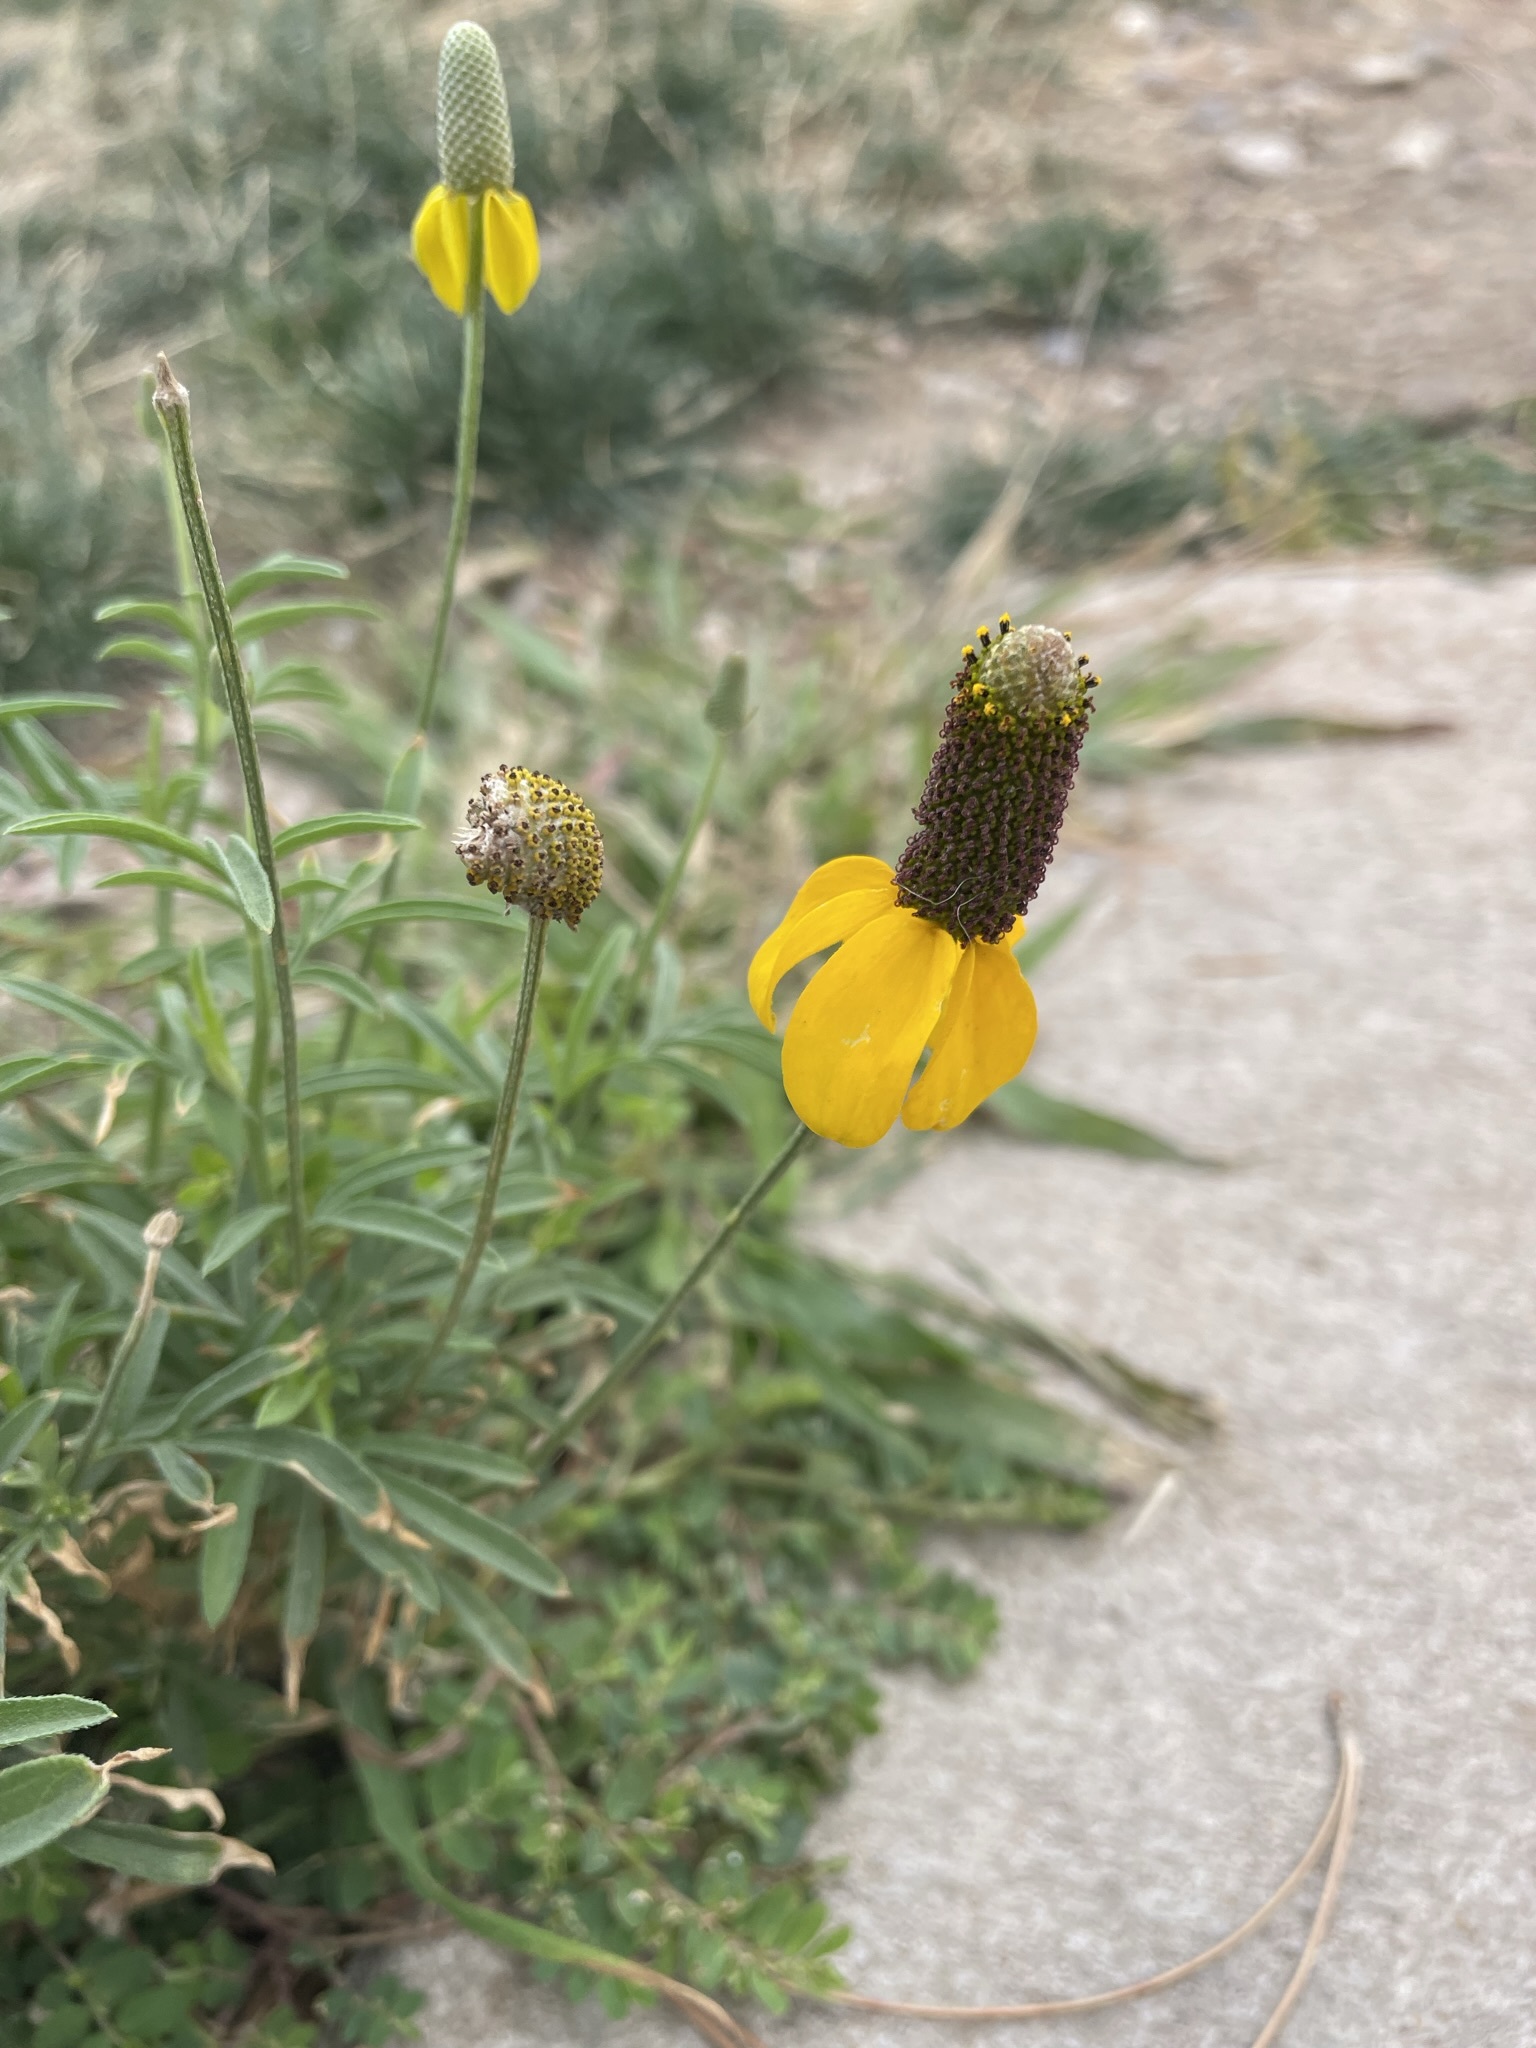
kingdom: Plantae
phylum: Tracheophyta
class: Magnoliopsida
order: Asterales
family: Asteraceae
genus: Ratibida
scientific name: Ratibida columnifera
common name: Prairie coneflower
